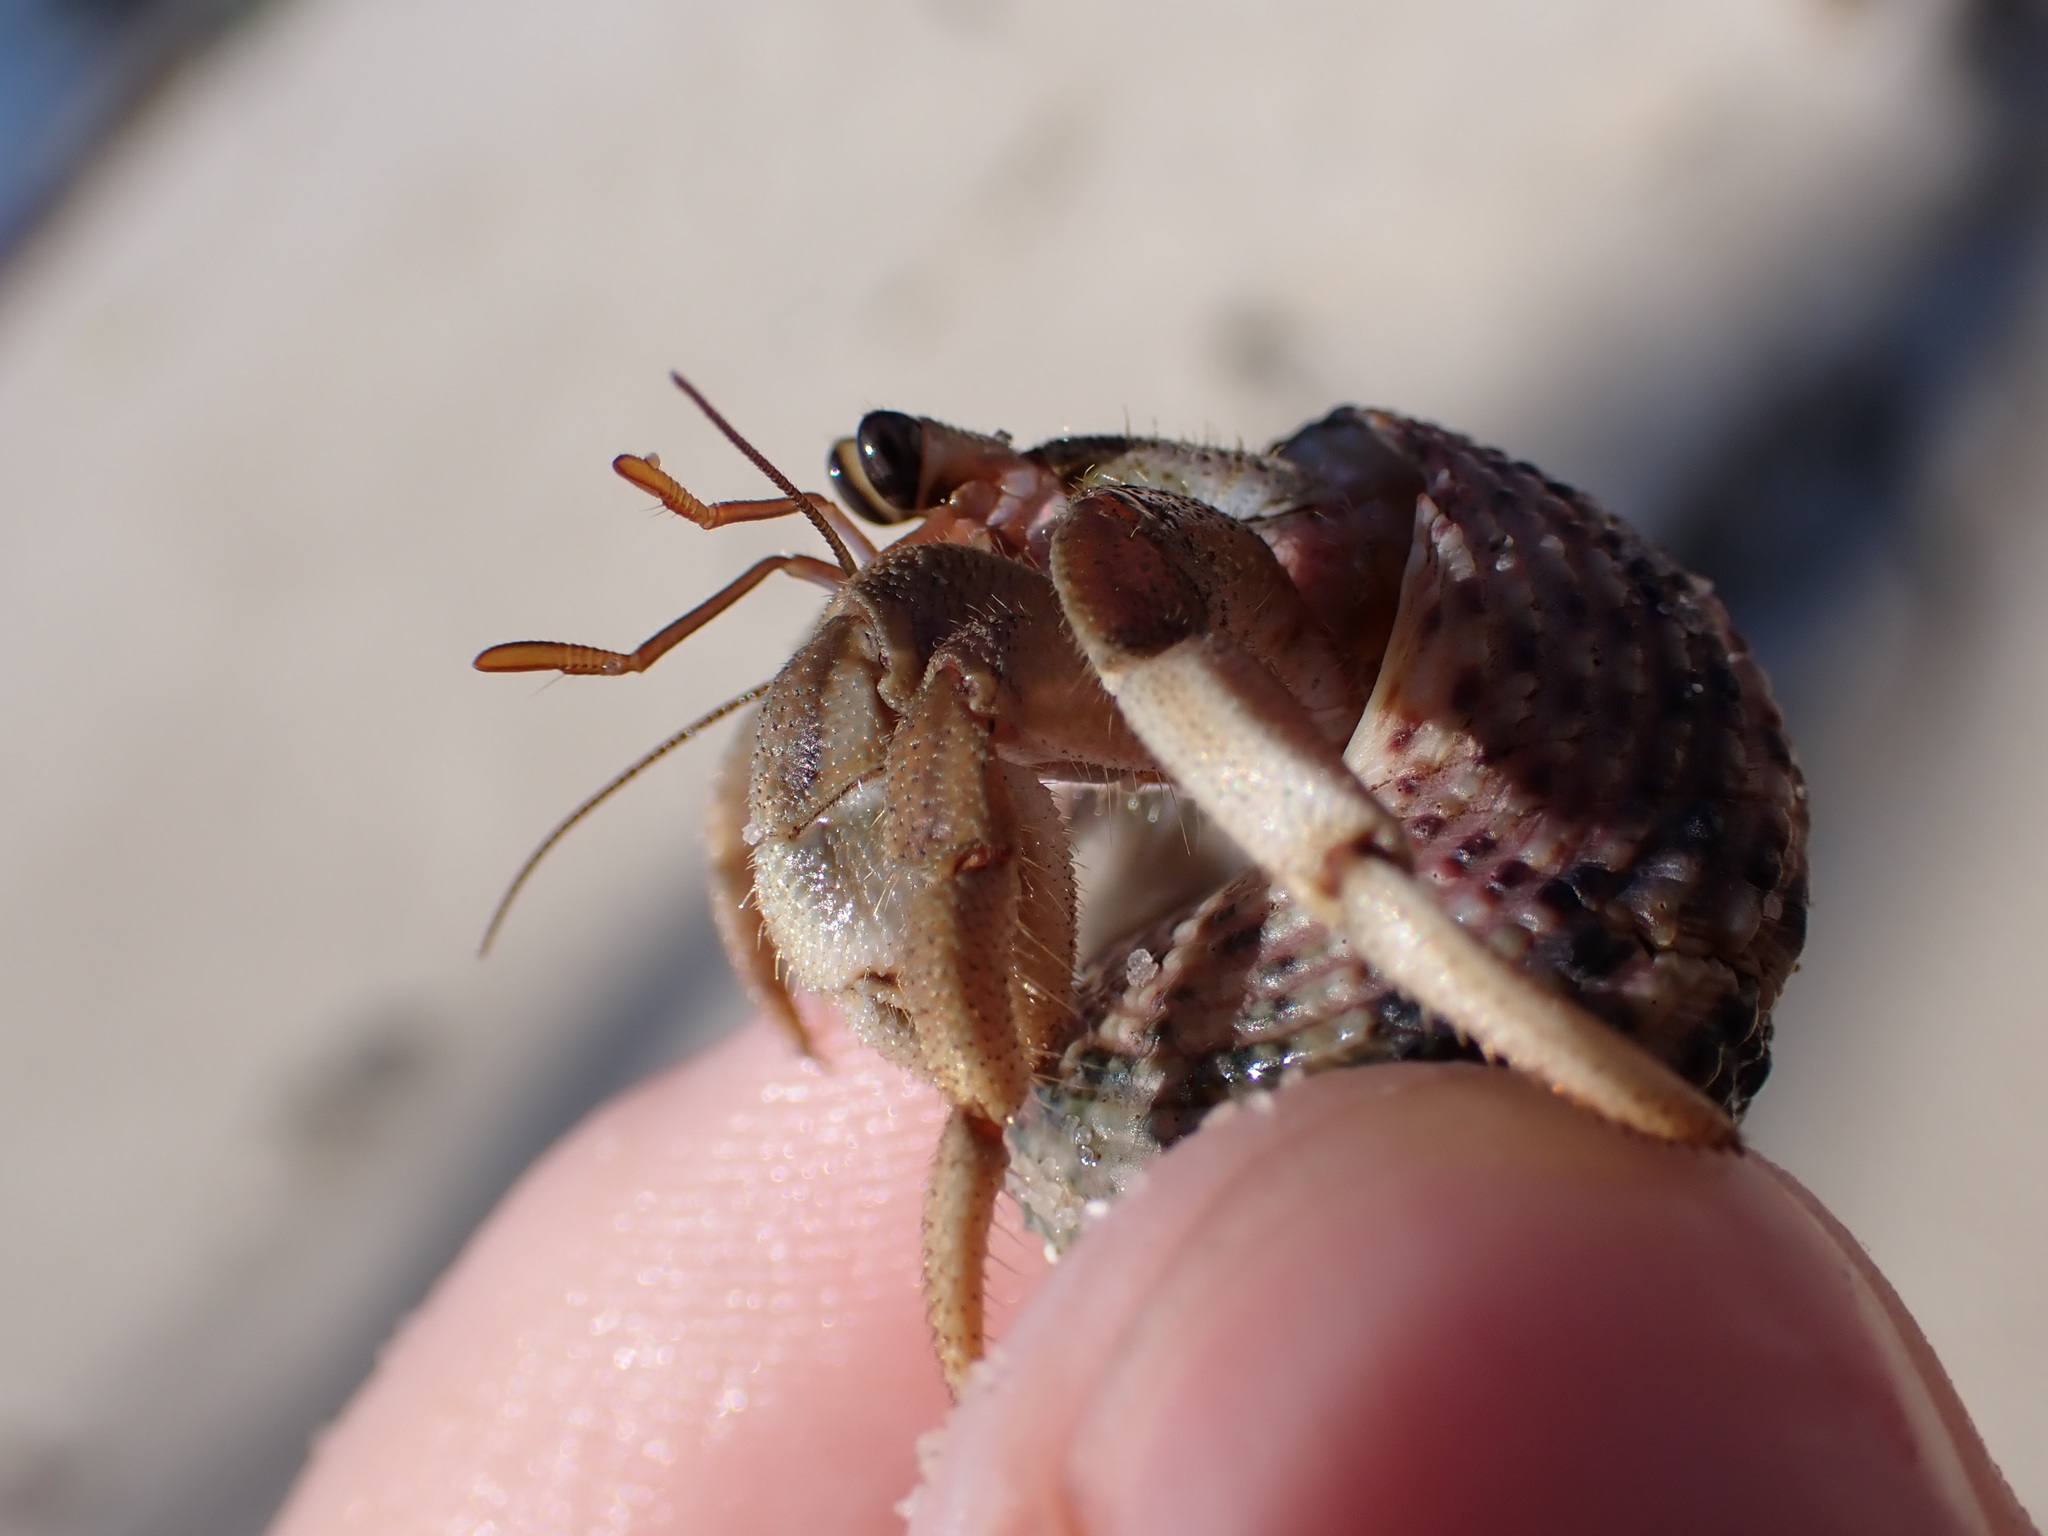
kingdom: Animalia
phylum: Arthropoda
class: Malacostraca
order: Decapoda
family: Coenobitidae
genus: Coenobita
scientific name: Coenobita rugosus
